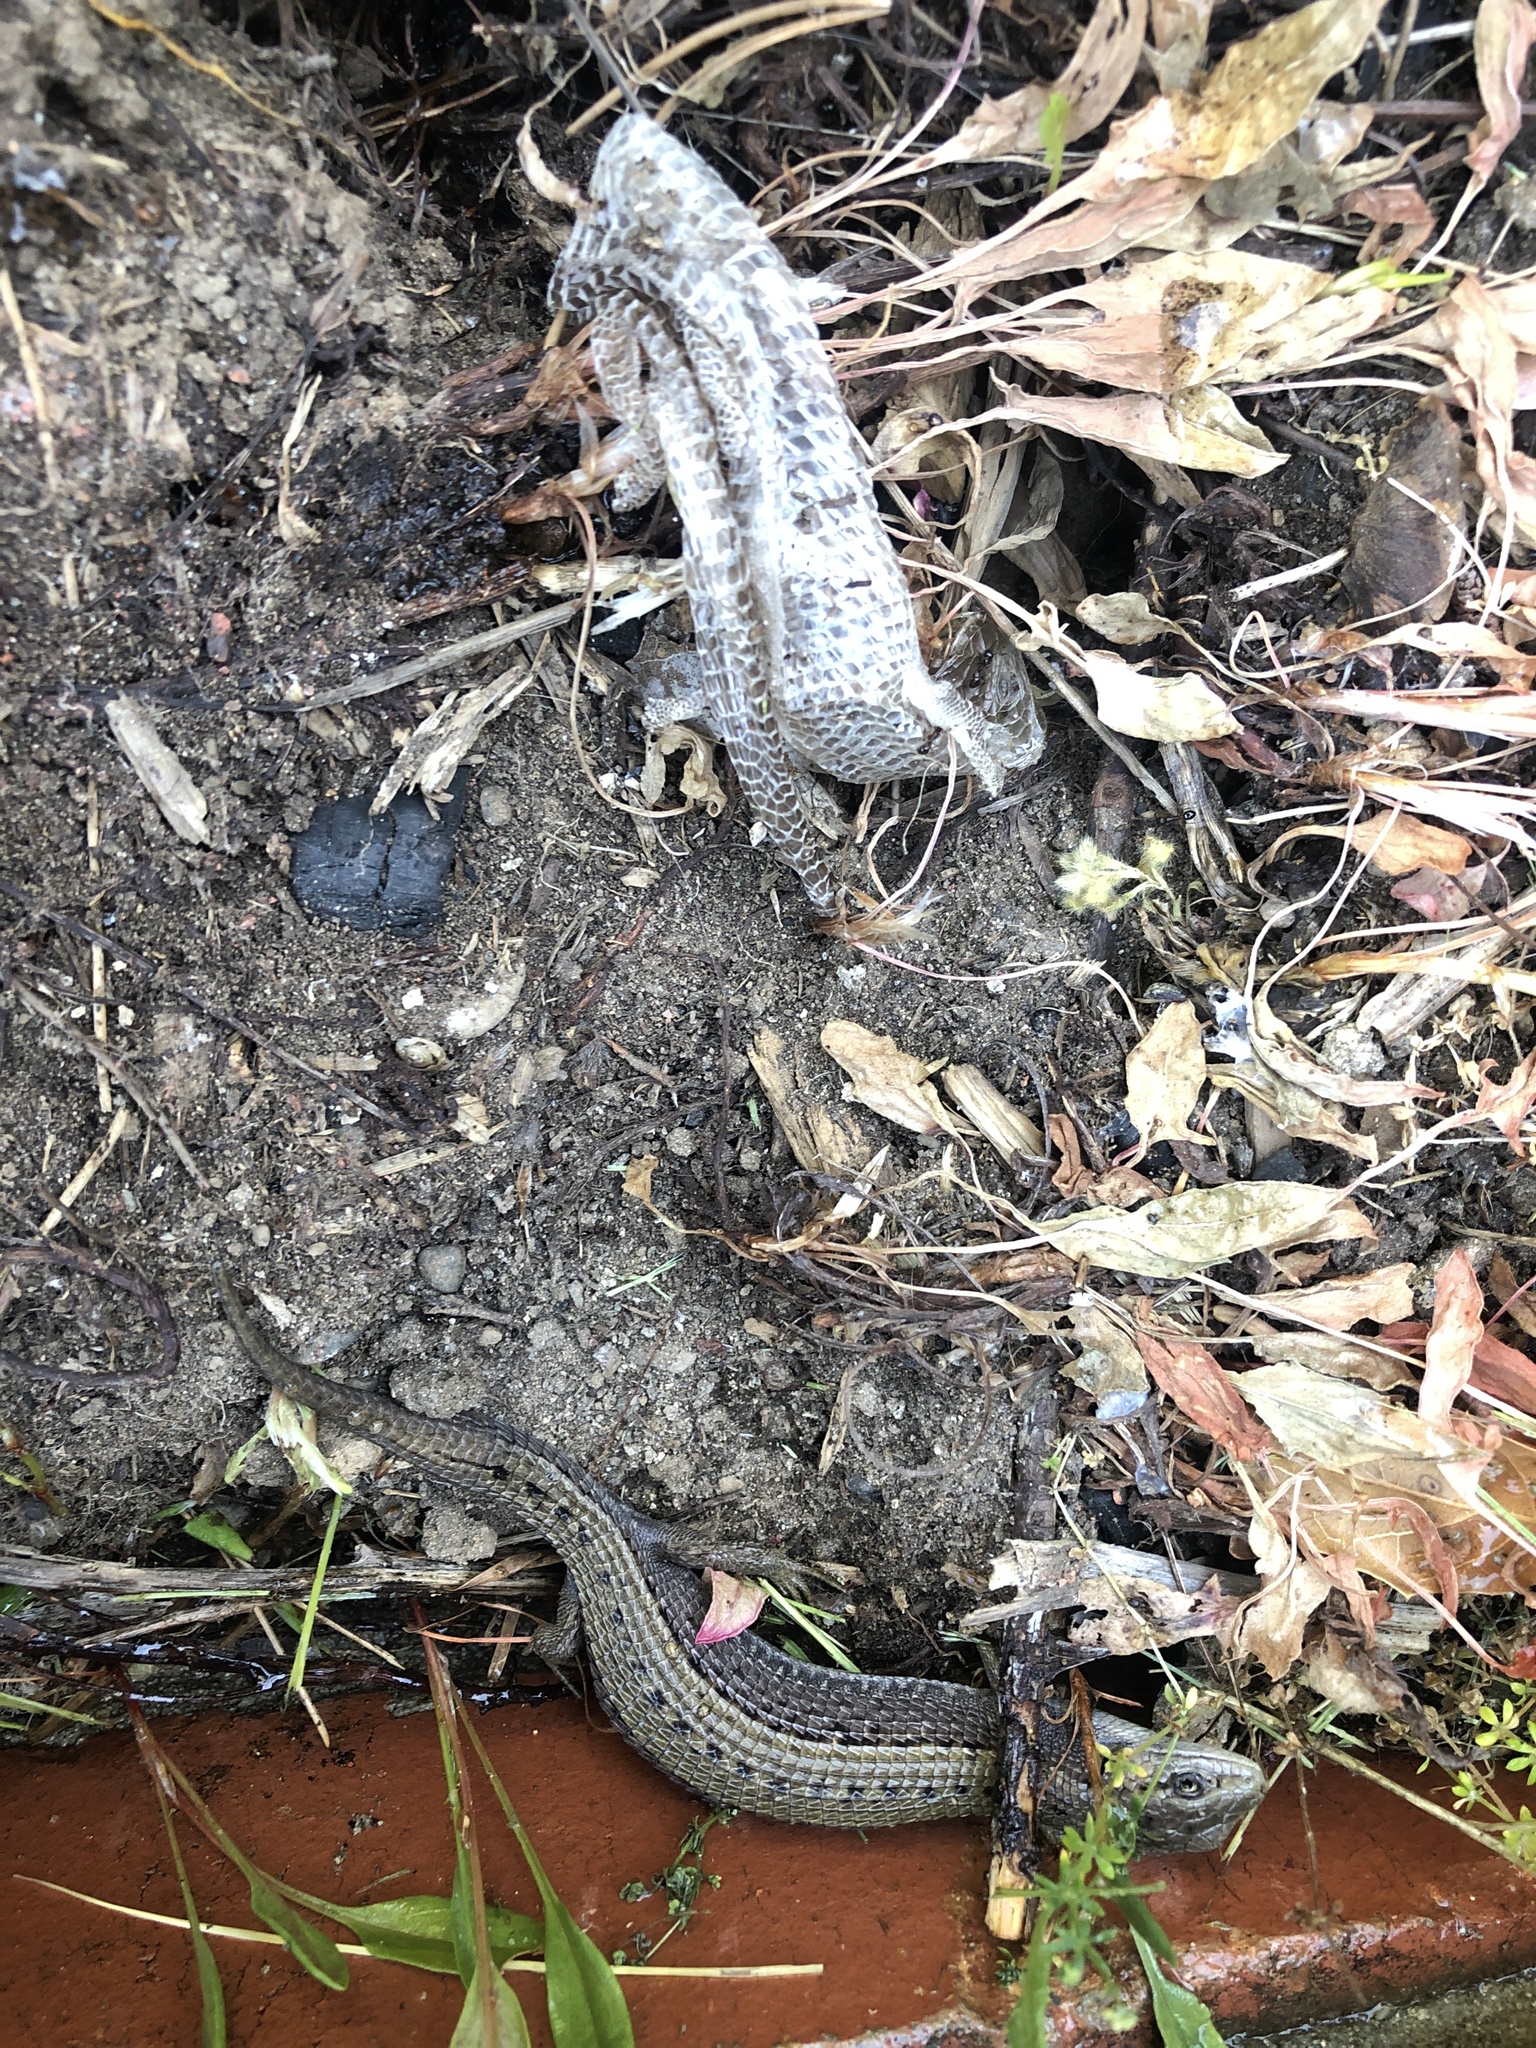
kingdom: Animalia
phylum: Chordata
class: Squamata
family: Anguidae
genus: Elgaria
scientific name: Elgaria coerulea
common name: Northern alligator lizard
